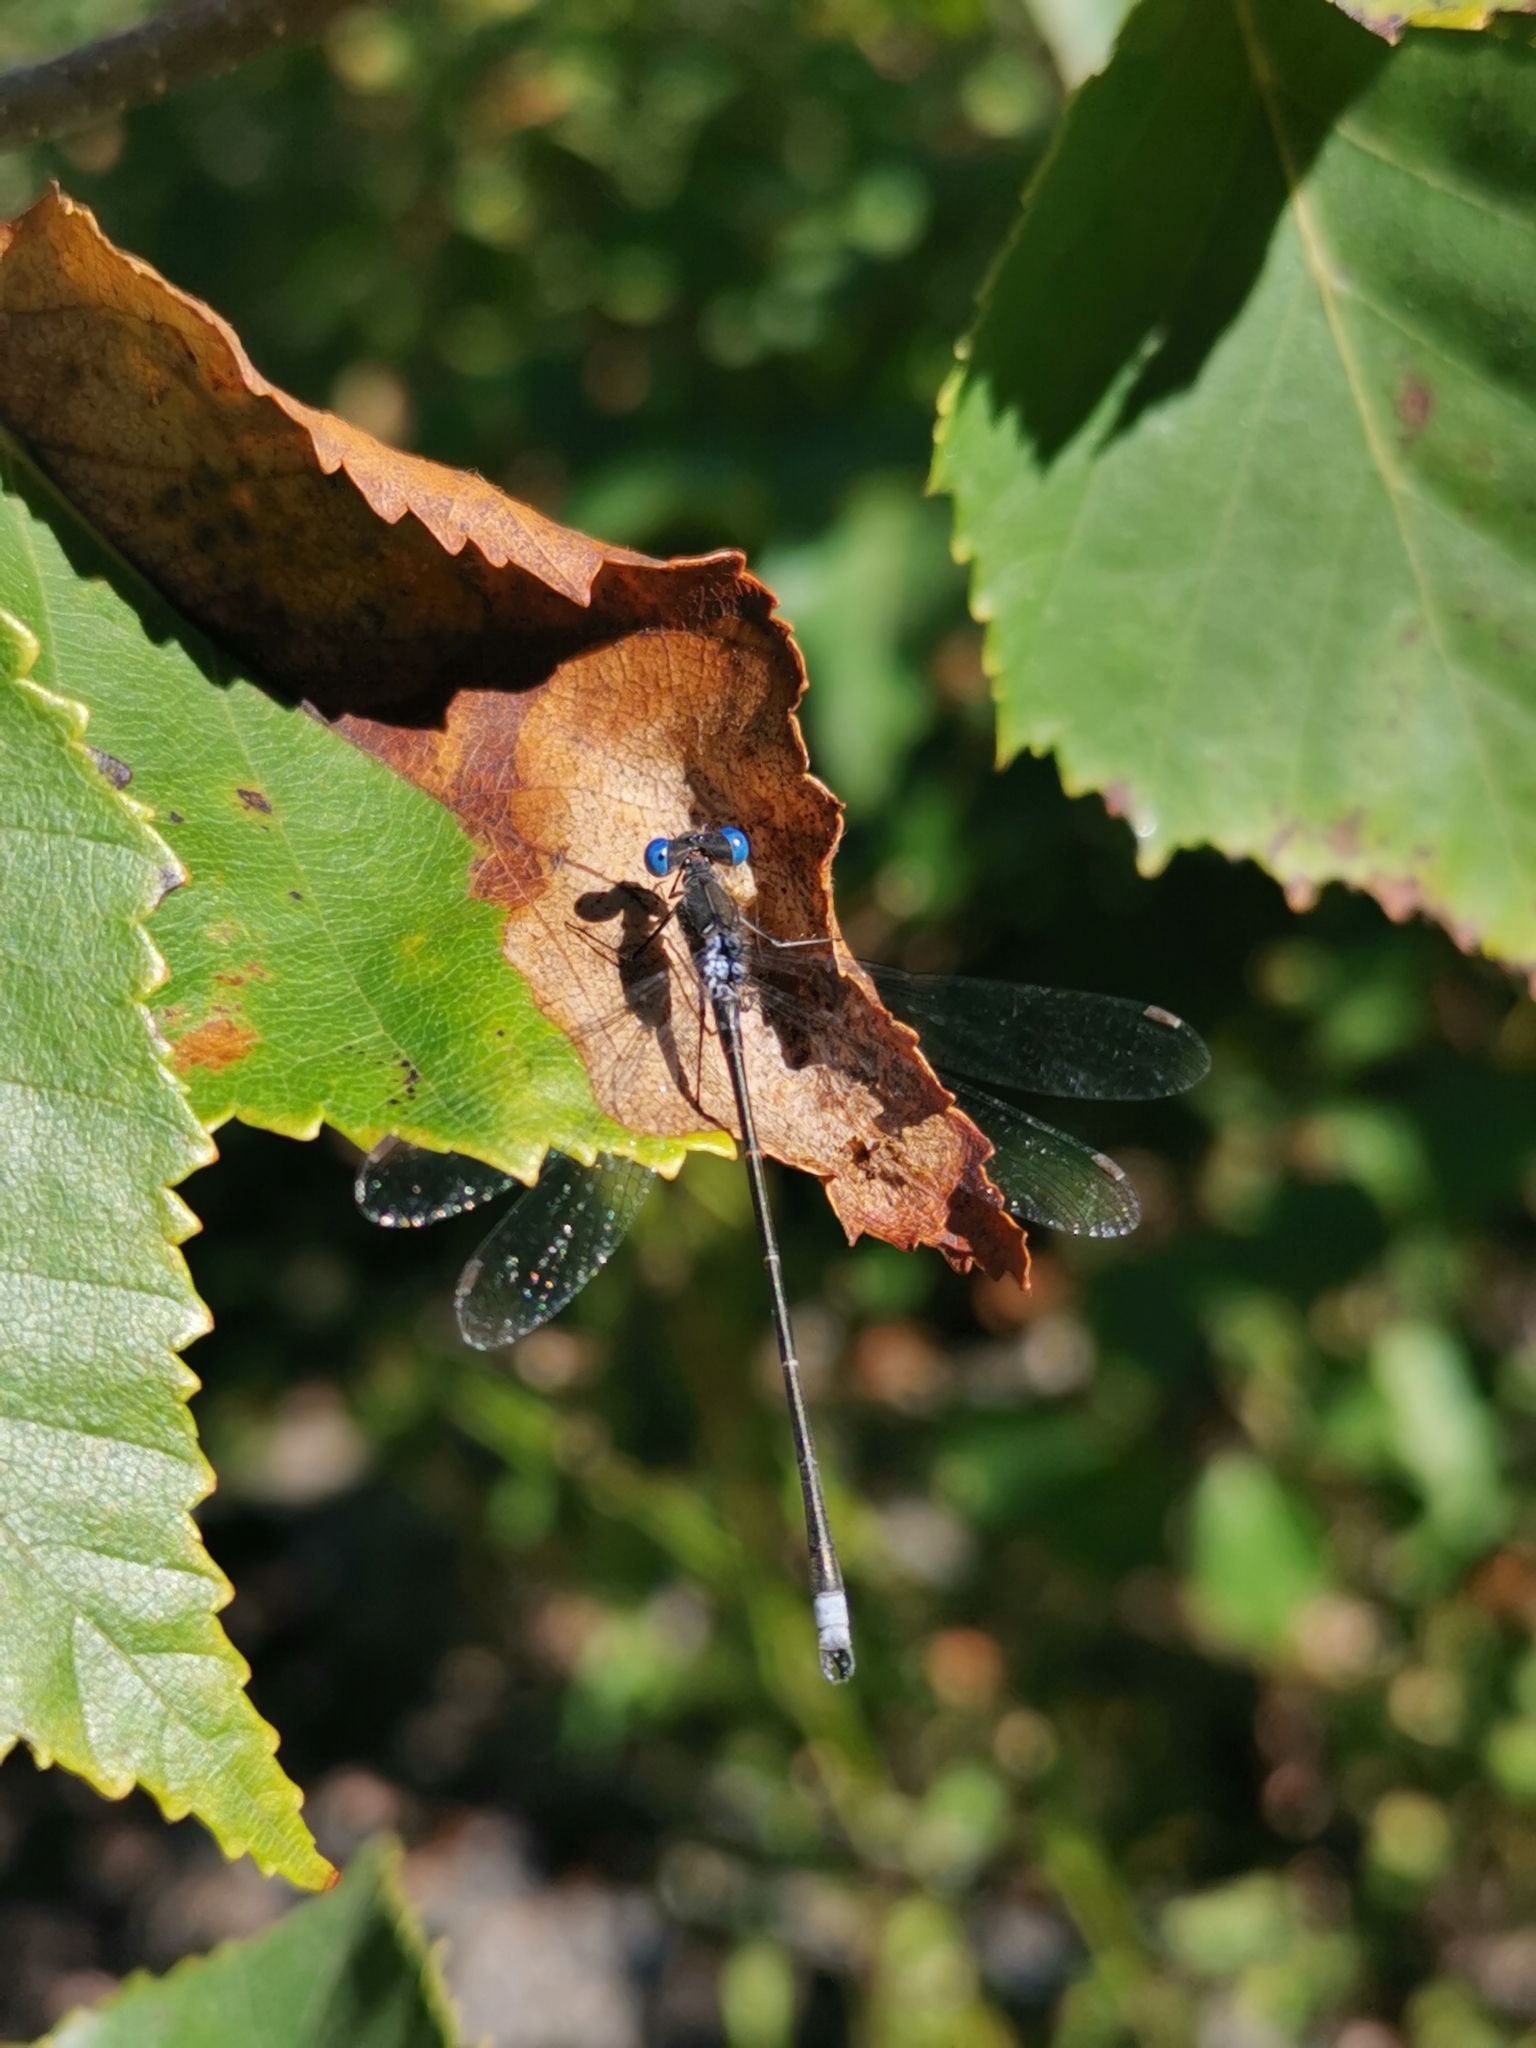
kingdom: Animalia
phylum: Arthropoda
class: Insecta
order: Odonata
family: Lestidae
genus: Lestes
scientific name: Lestes congener
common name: Spotted spreadwing
